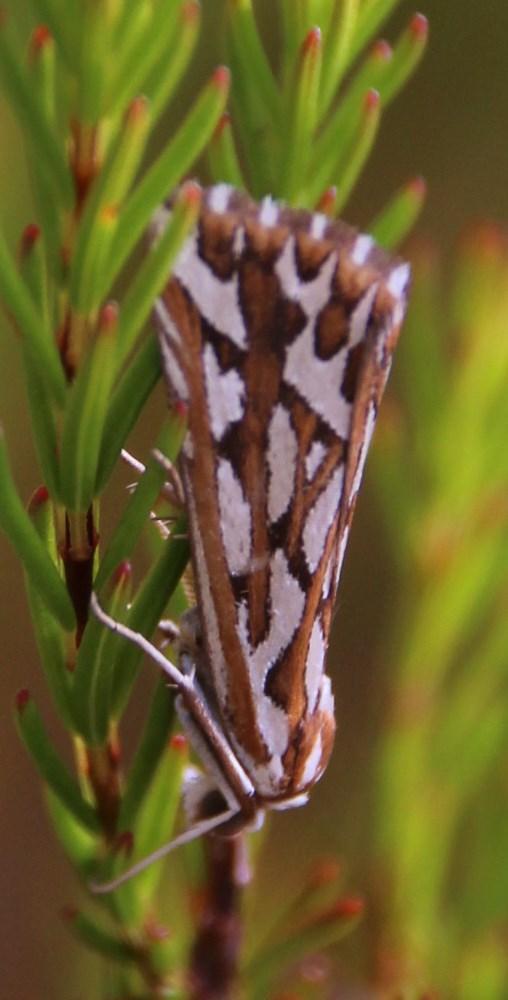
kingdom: Animalia
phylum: Arthropoda
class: Insecta
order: Lepidoptera
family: Geometridae
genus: Argyrophora
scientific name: Argyrophora trofonia
